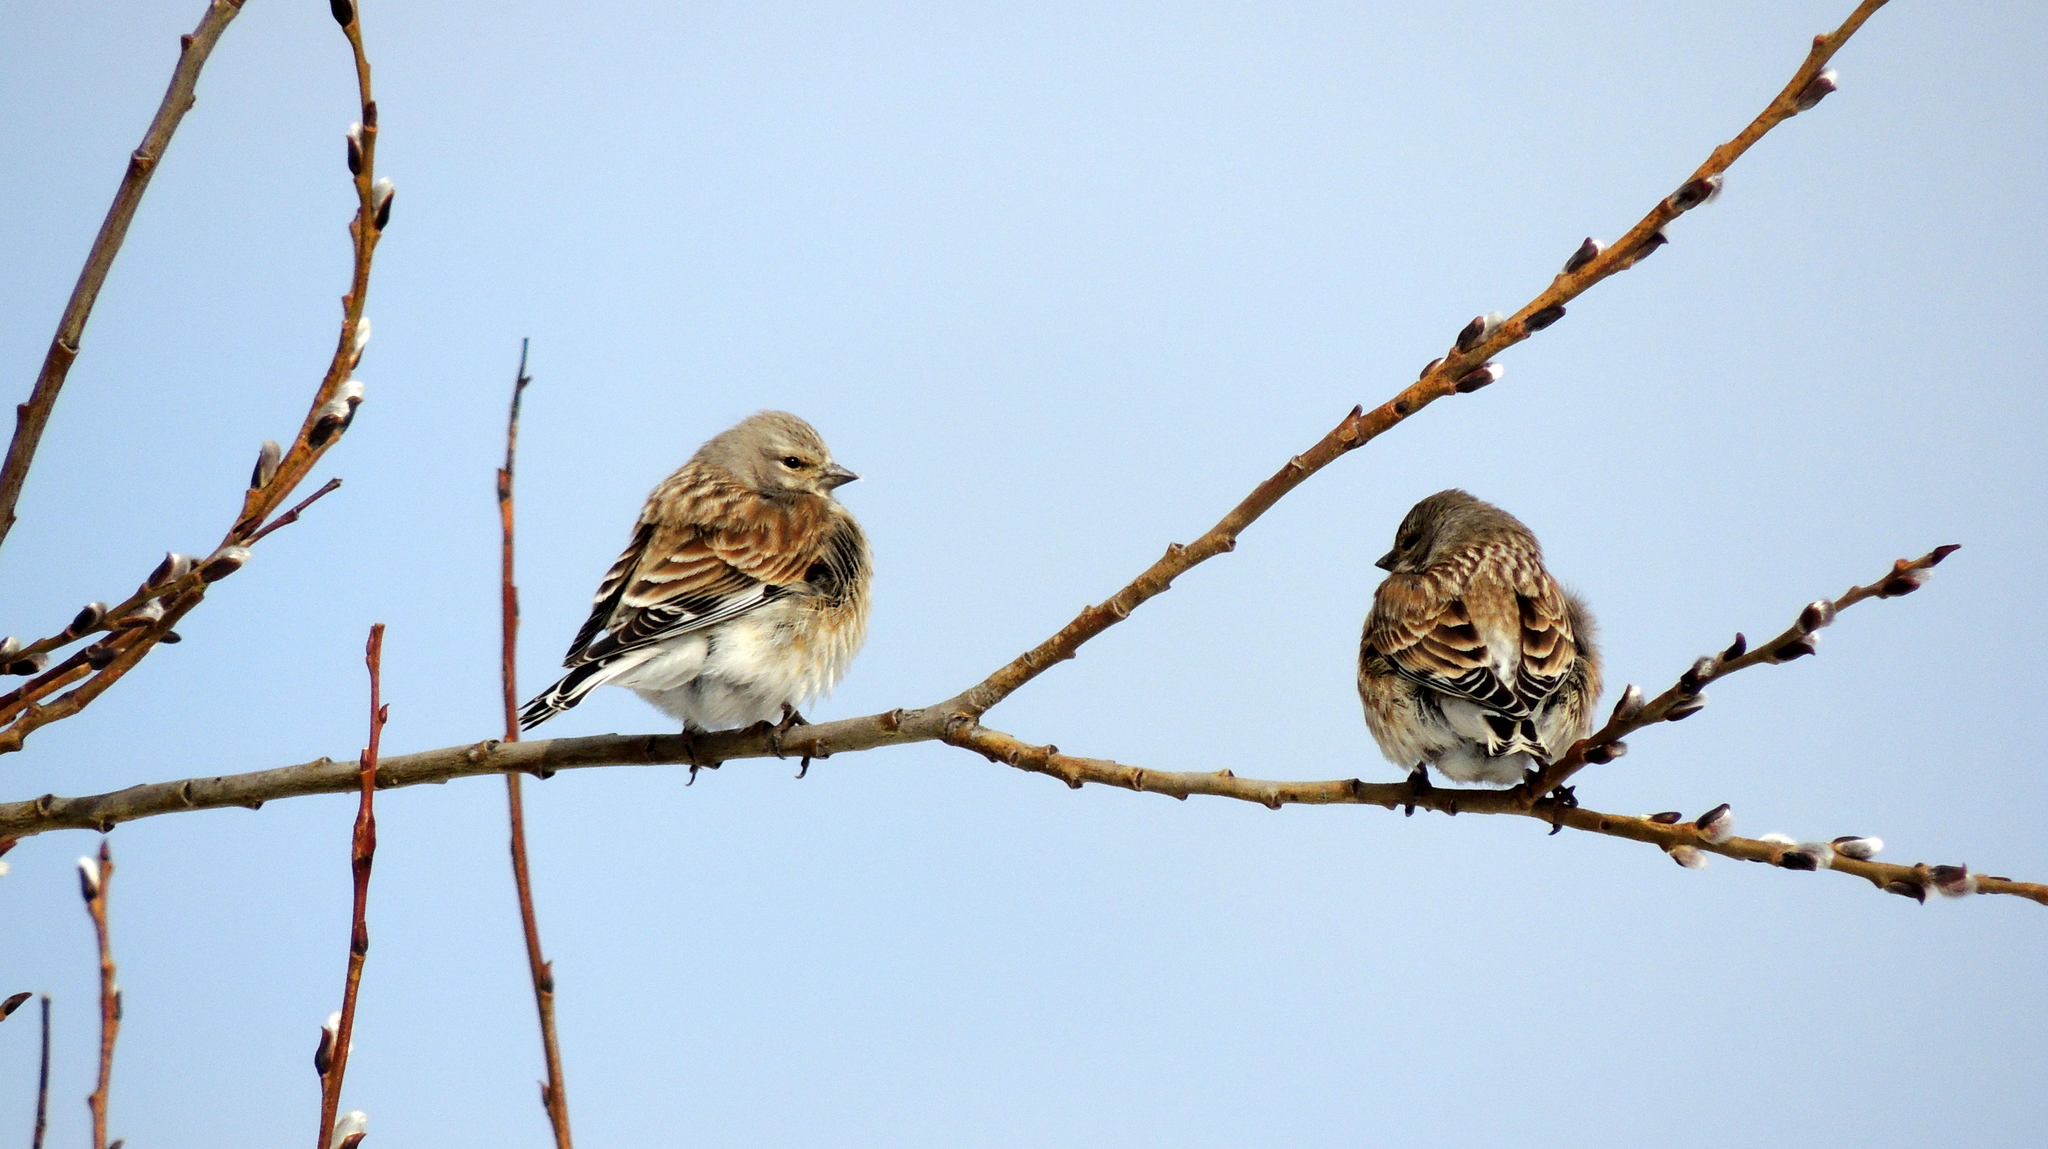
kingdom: Animalia
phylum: Chordata
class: Aves
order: Passeriformes
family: Fringillidae
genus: Linaria
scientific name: Linaria cannabina
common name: Common linnet
